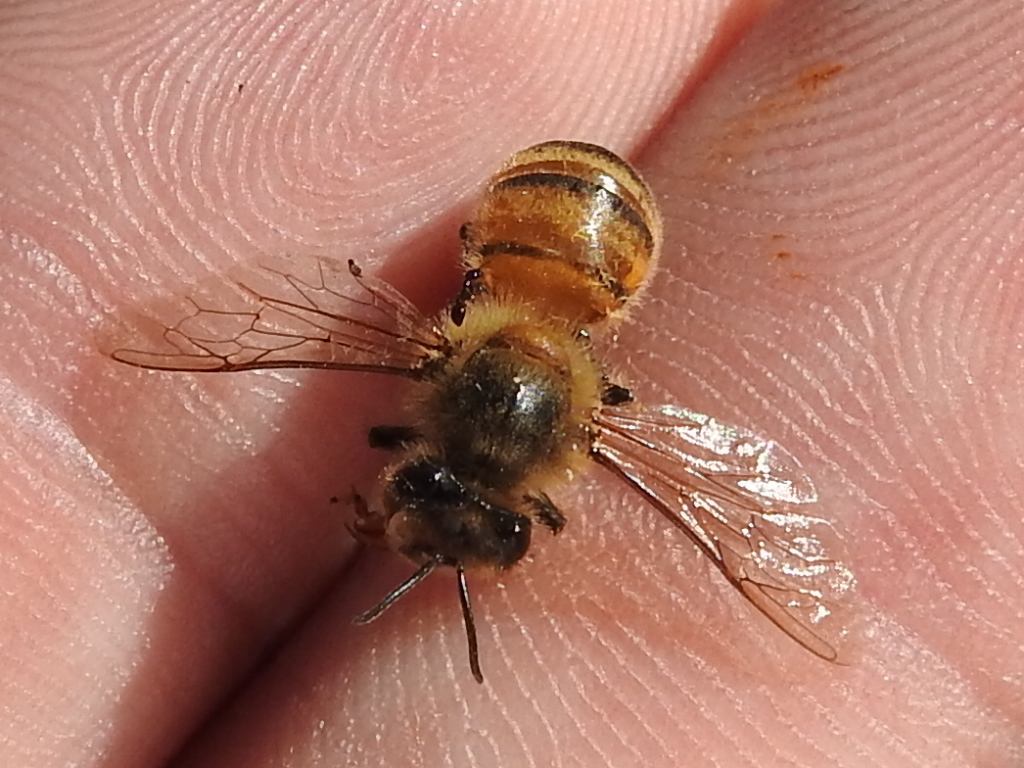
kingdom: Animalia
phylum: Arthropoda
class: Insecta
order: Hymenoptera
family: Apidae
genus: Apis
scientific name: Apis mellifera
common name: Honey bee
